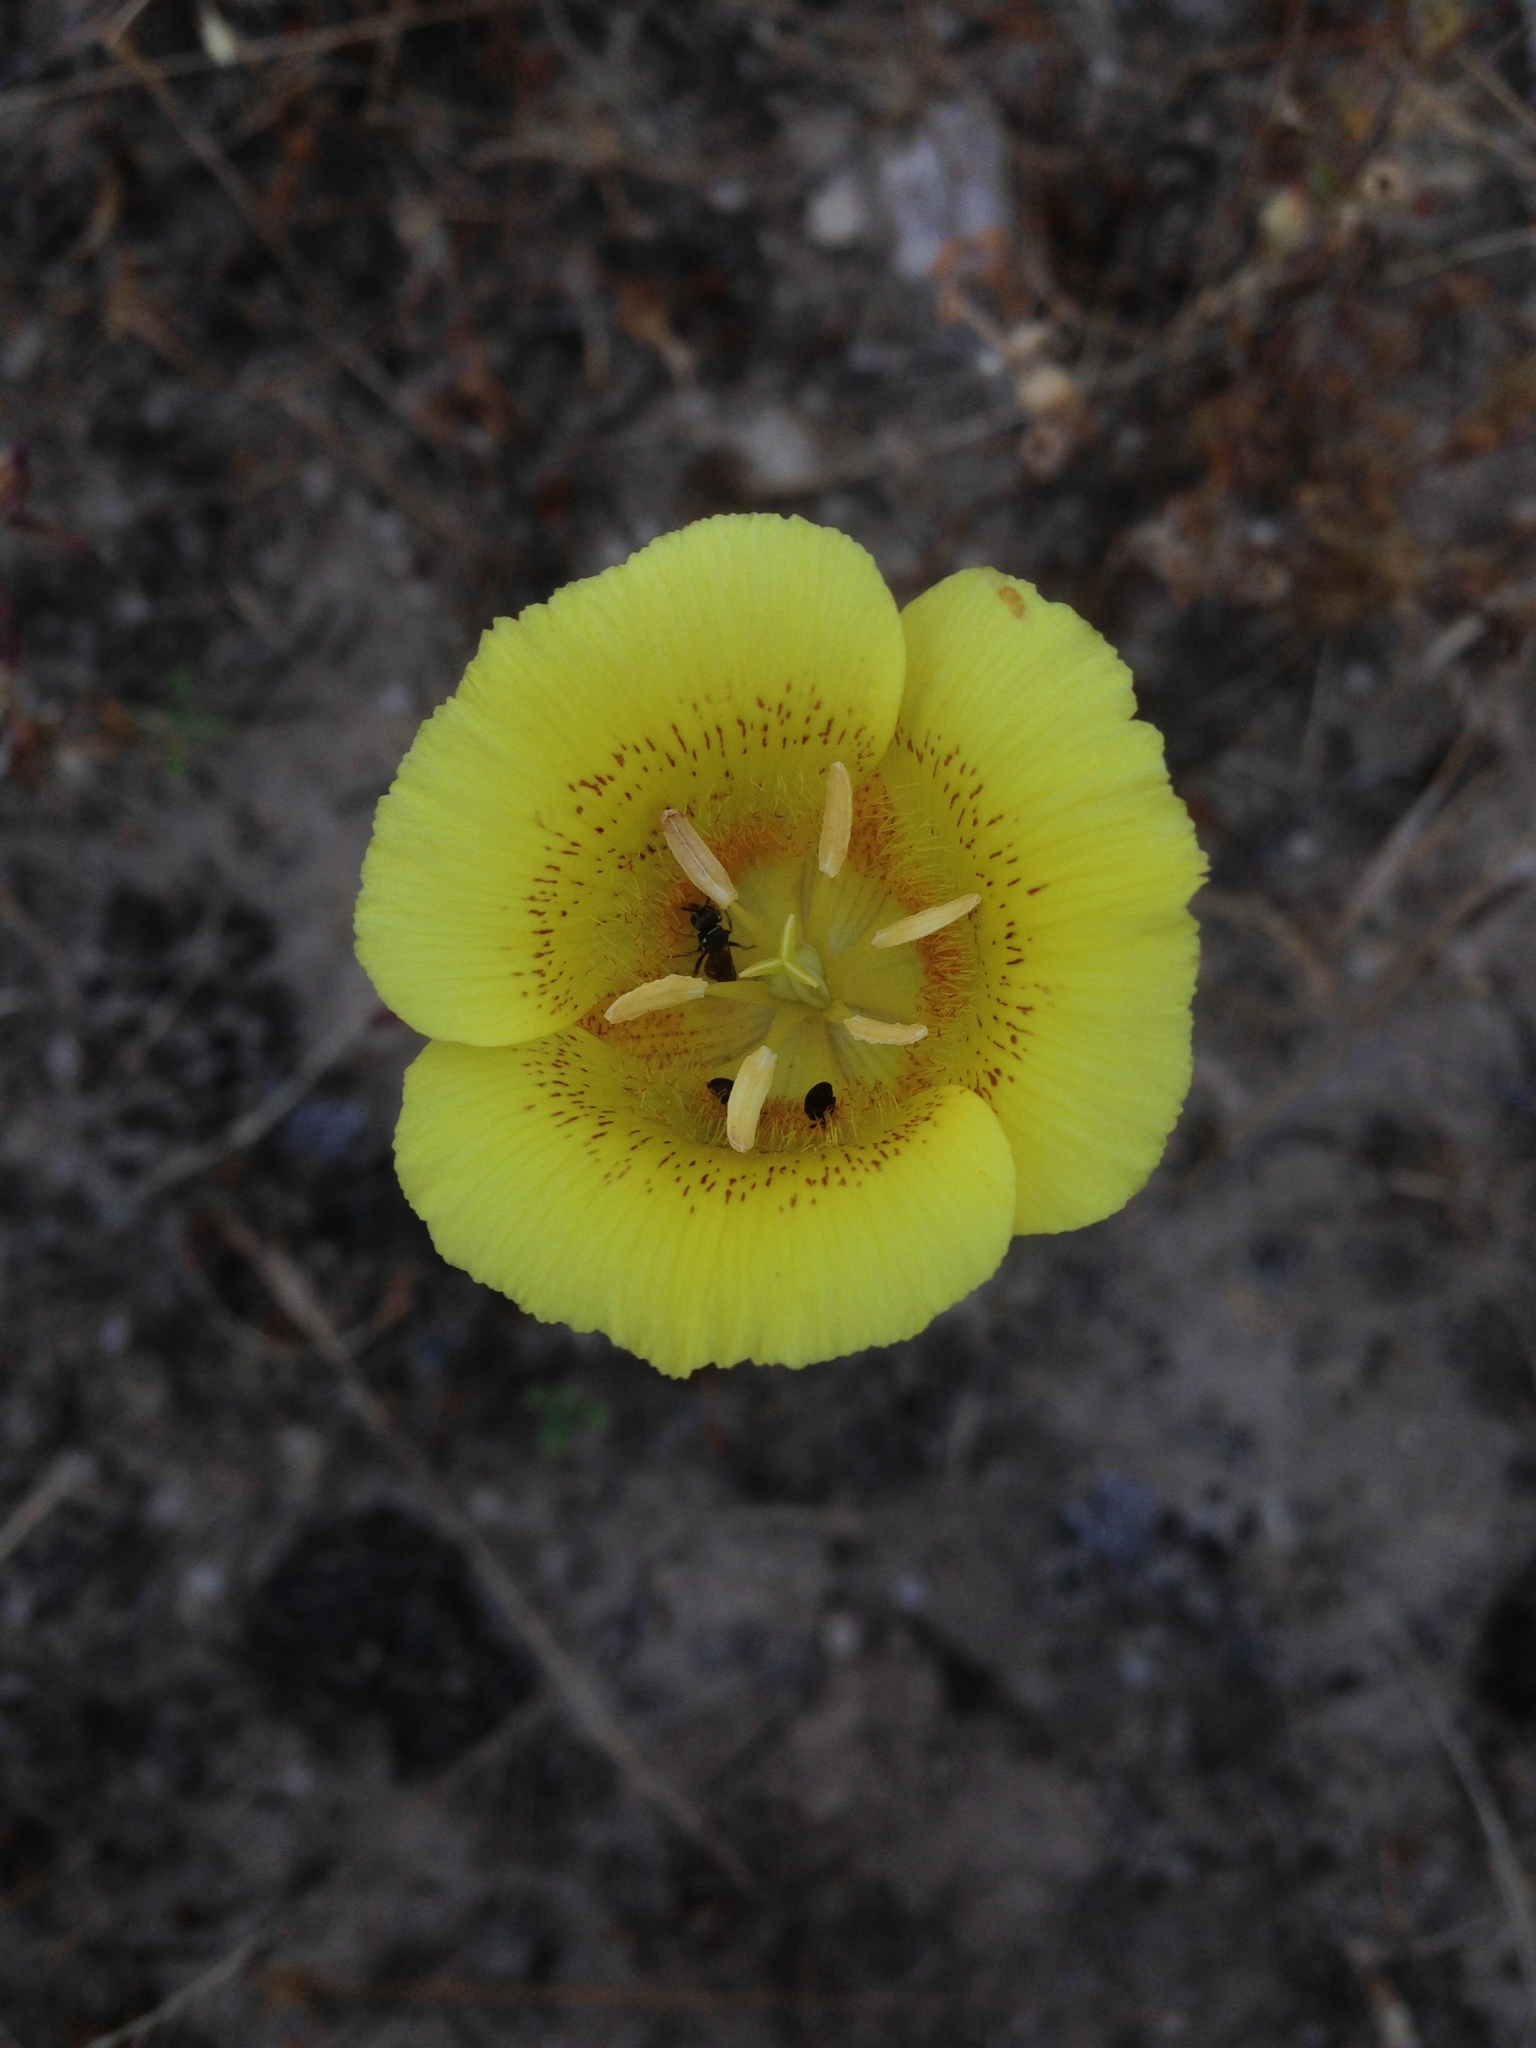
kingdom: Plantae
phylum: Tracheophyta
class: Liliopsida
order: Liliales
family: Liliaceae
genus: Calochortus
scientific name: Calochortus luteus
